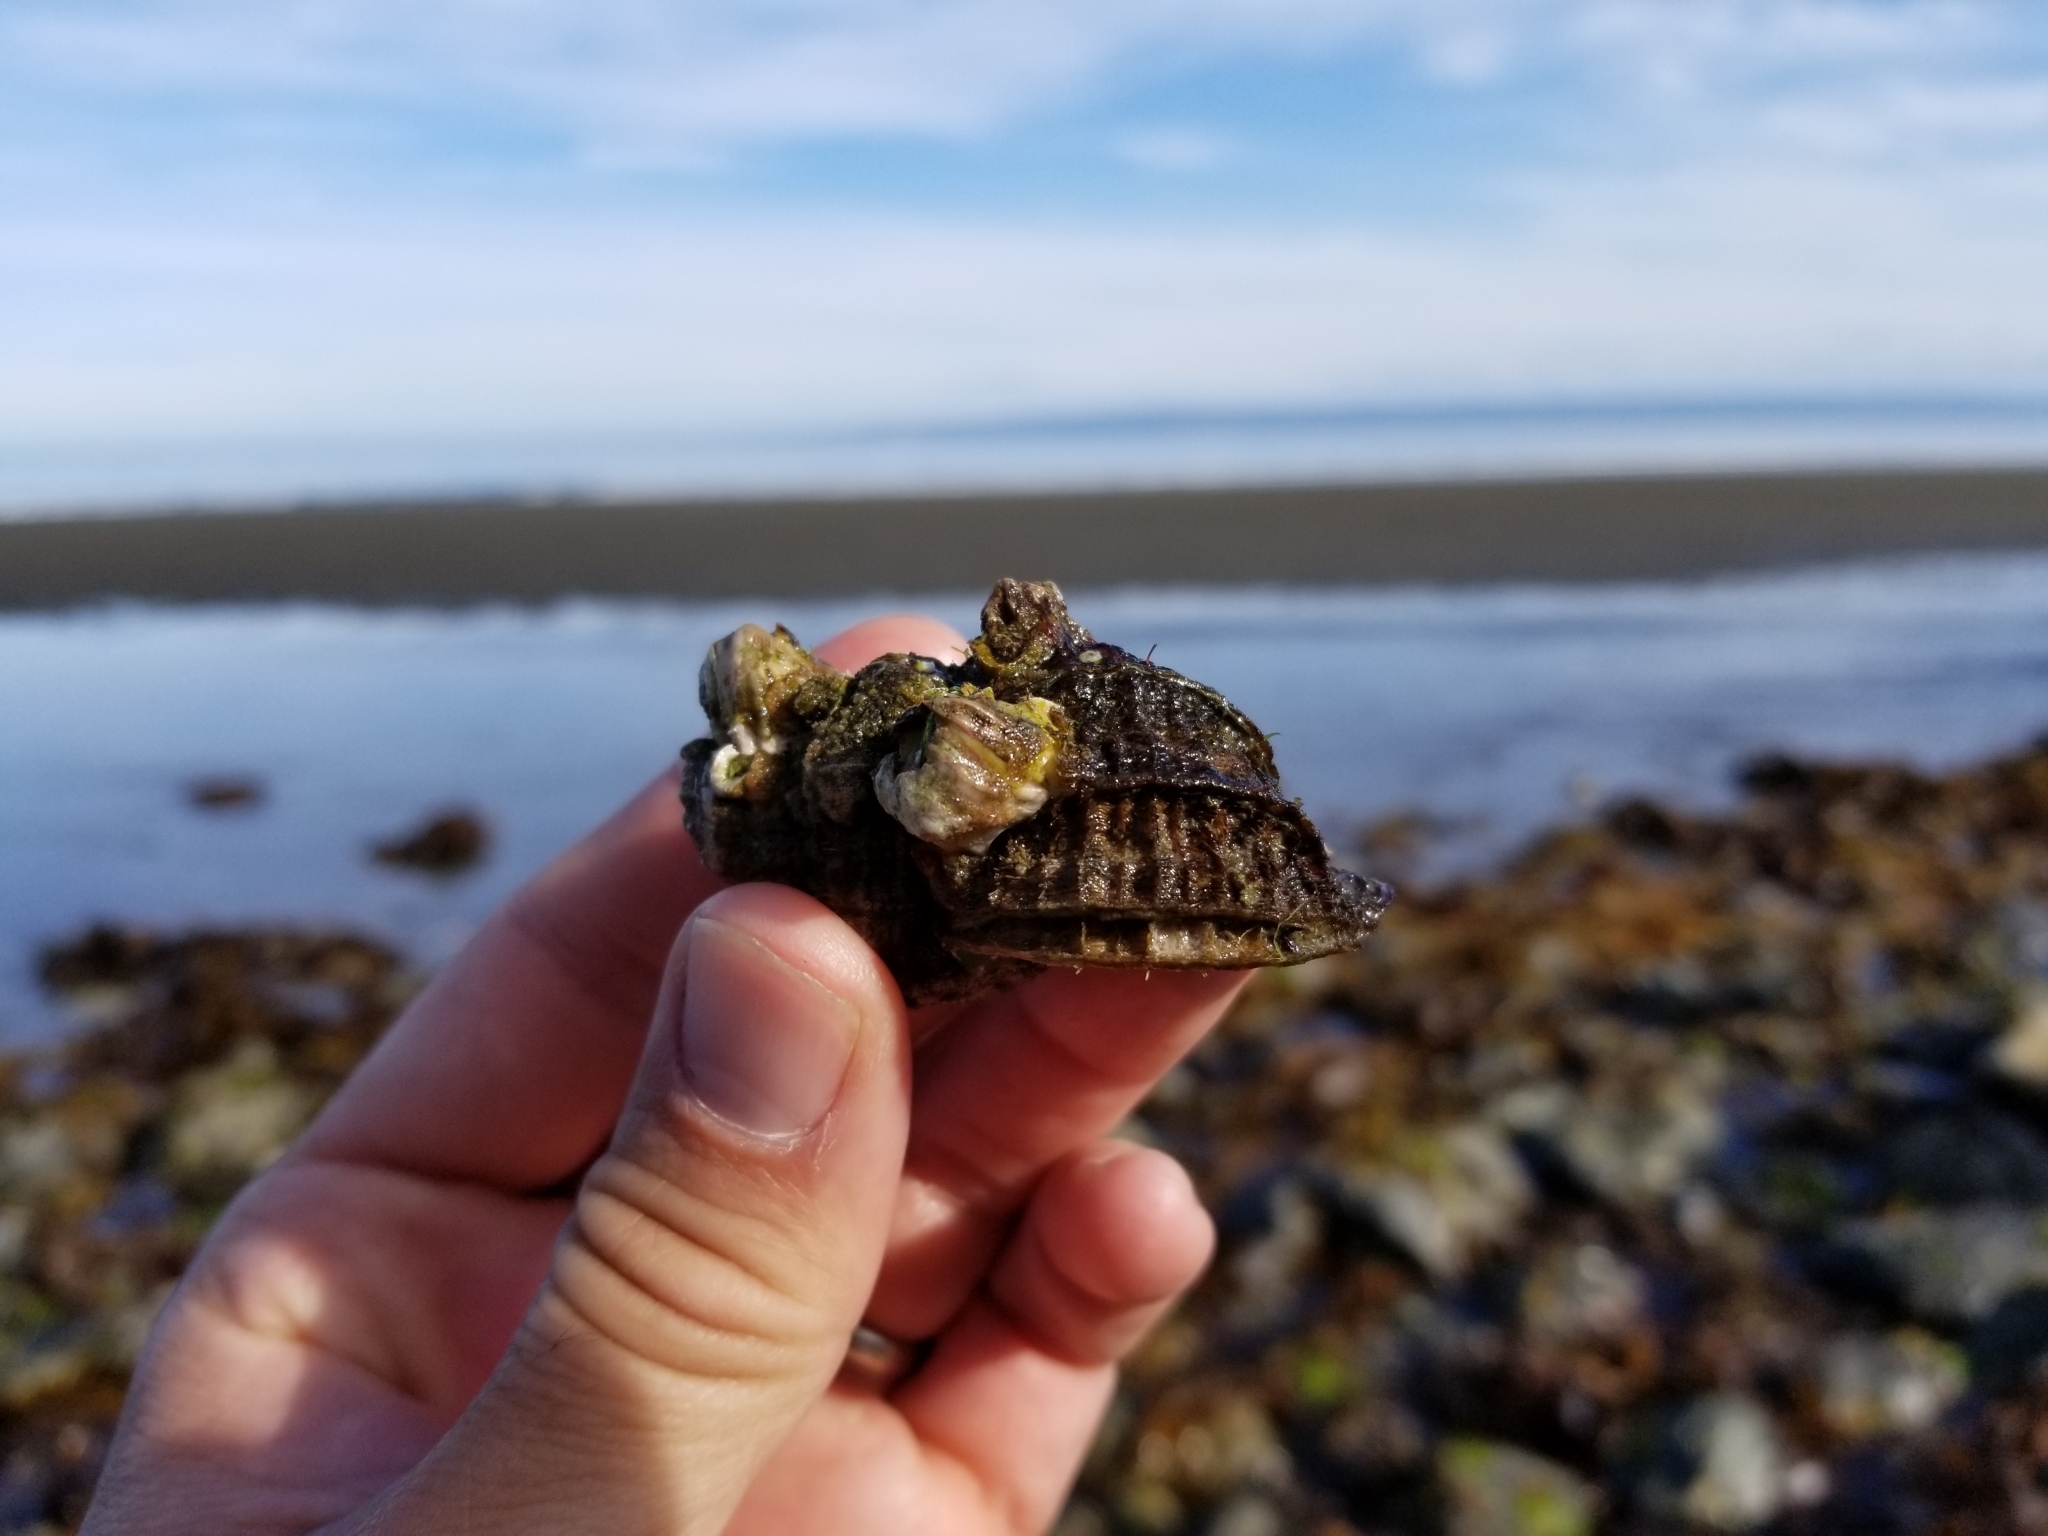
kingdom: Animalia
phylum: Mollusca
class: Gastropoda
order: Littorinimorpha
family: Cymatiidae
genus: Fusitriton
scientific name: Fusitriton oregonensis
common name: Oregon hairy triton
